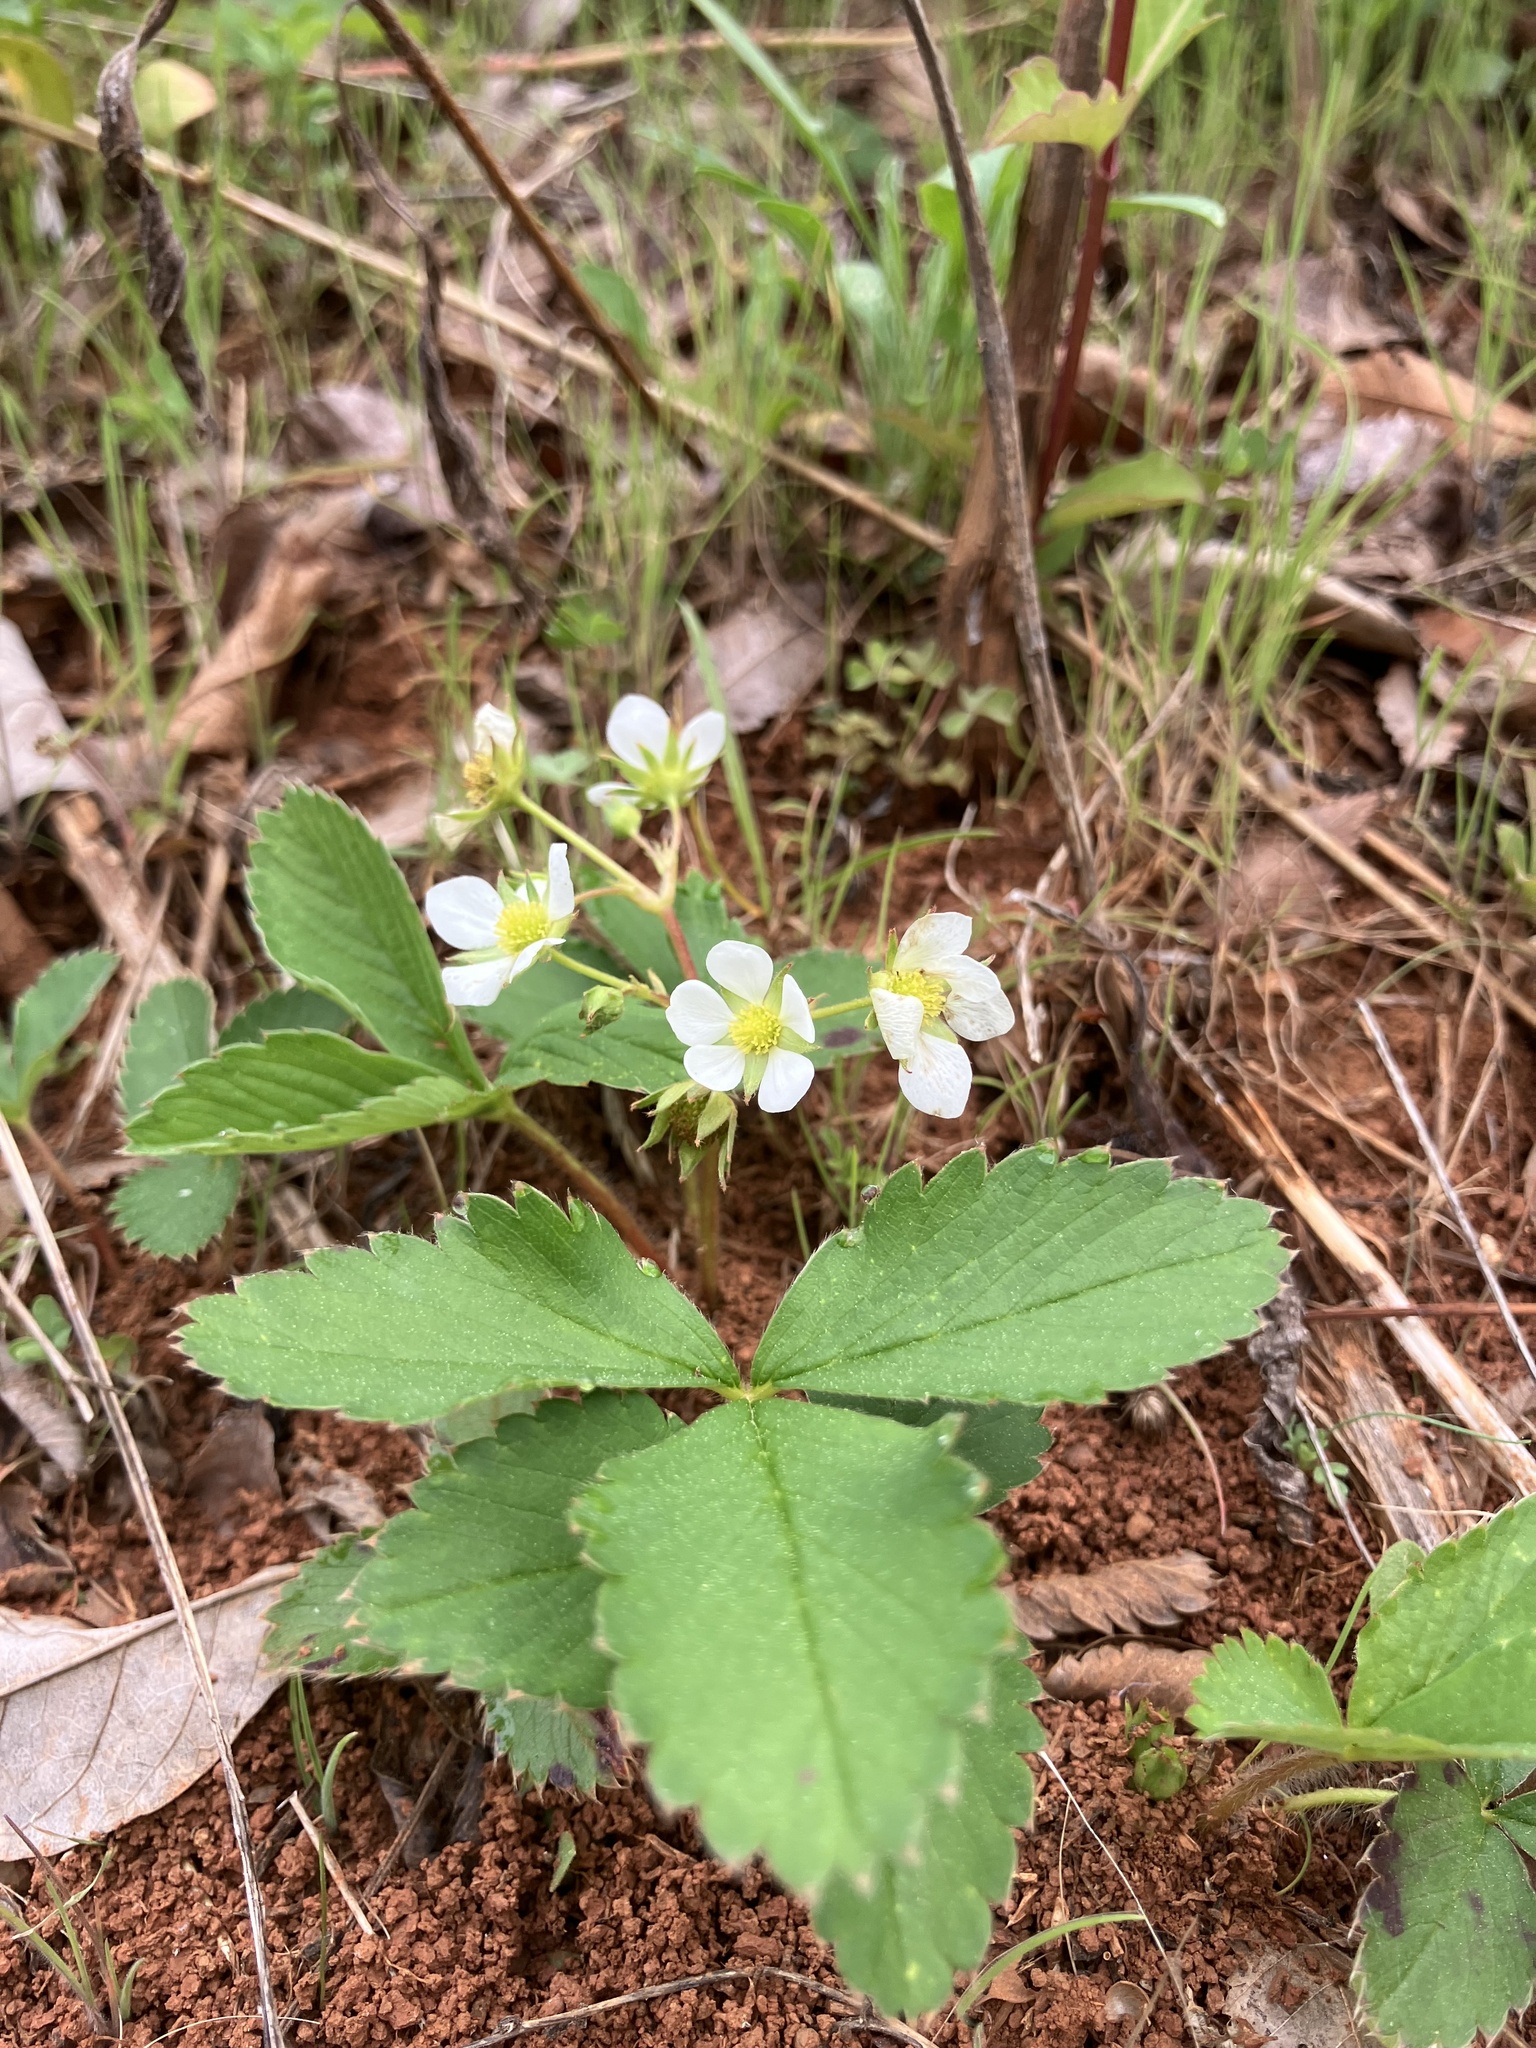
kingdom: Plantae
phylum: Tracheophyta
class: Magnoliopsida
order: Rosales
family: Rosaceae
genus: Fragaria
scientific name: Fragaria virginiana
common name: Thickleaved wild strawberry
